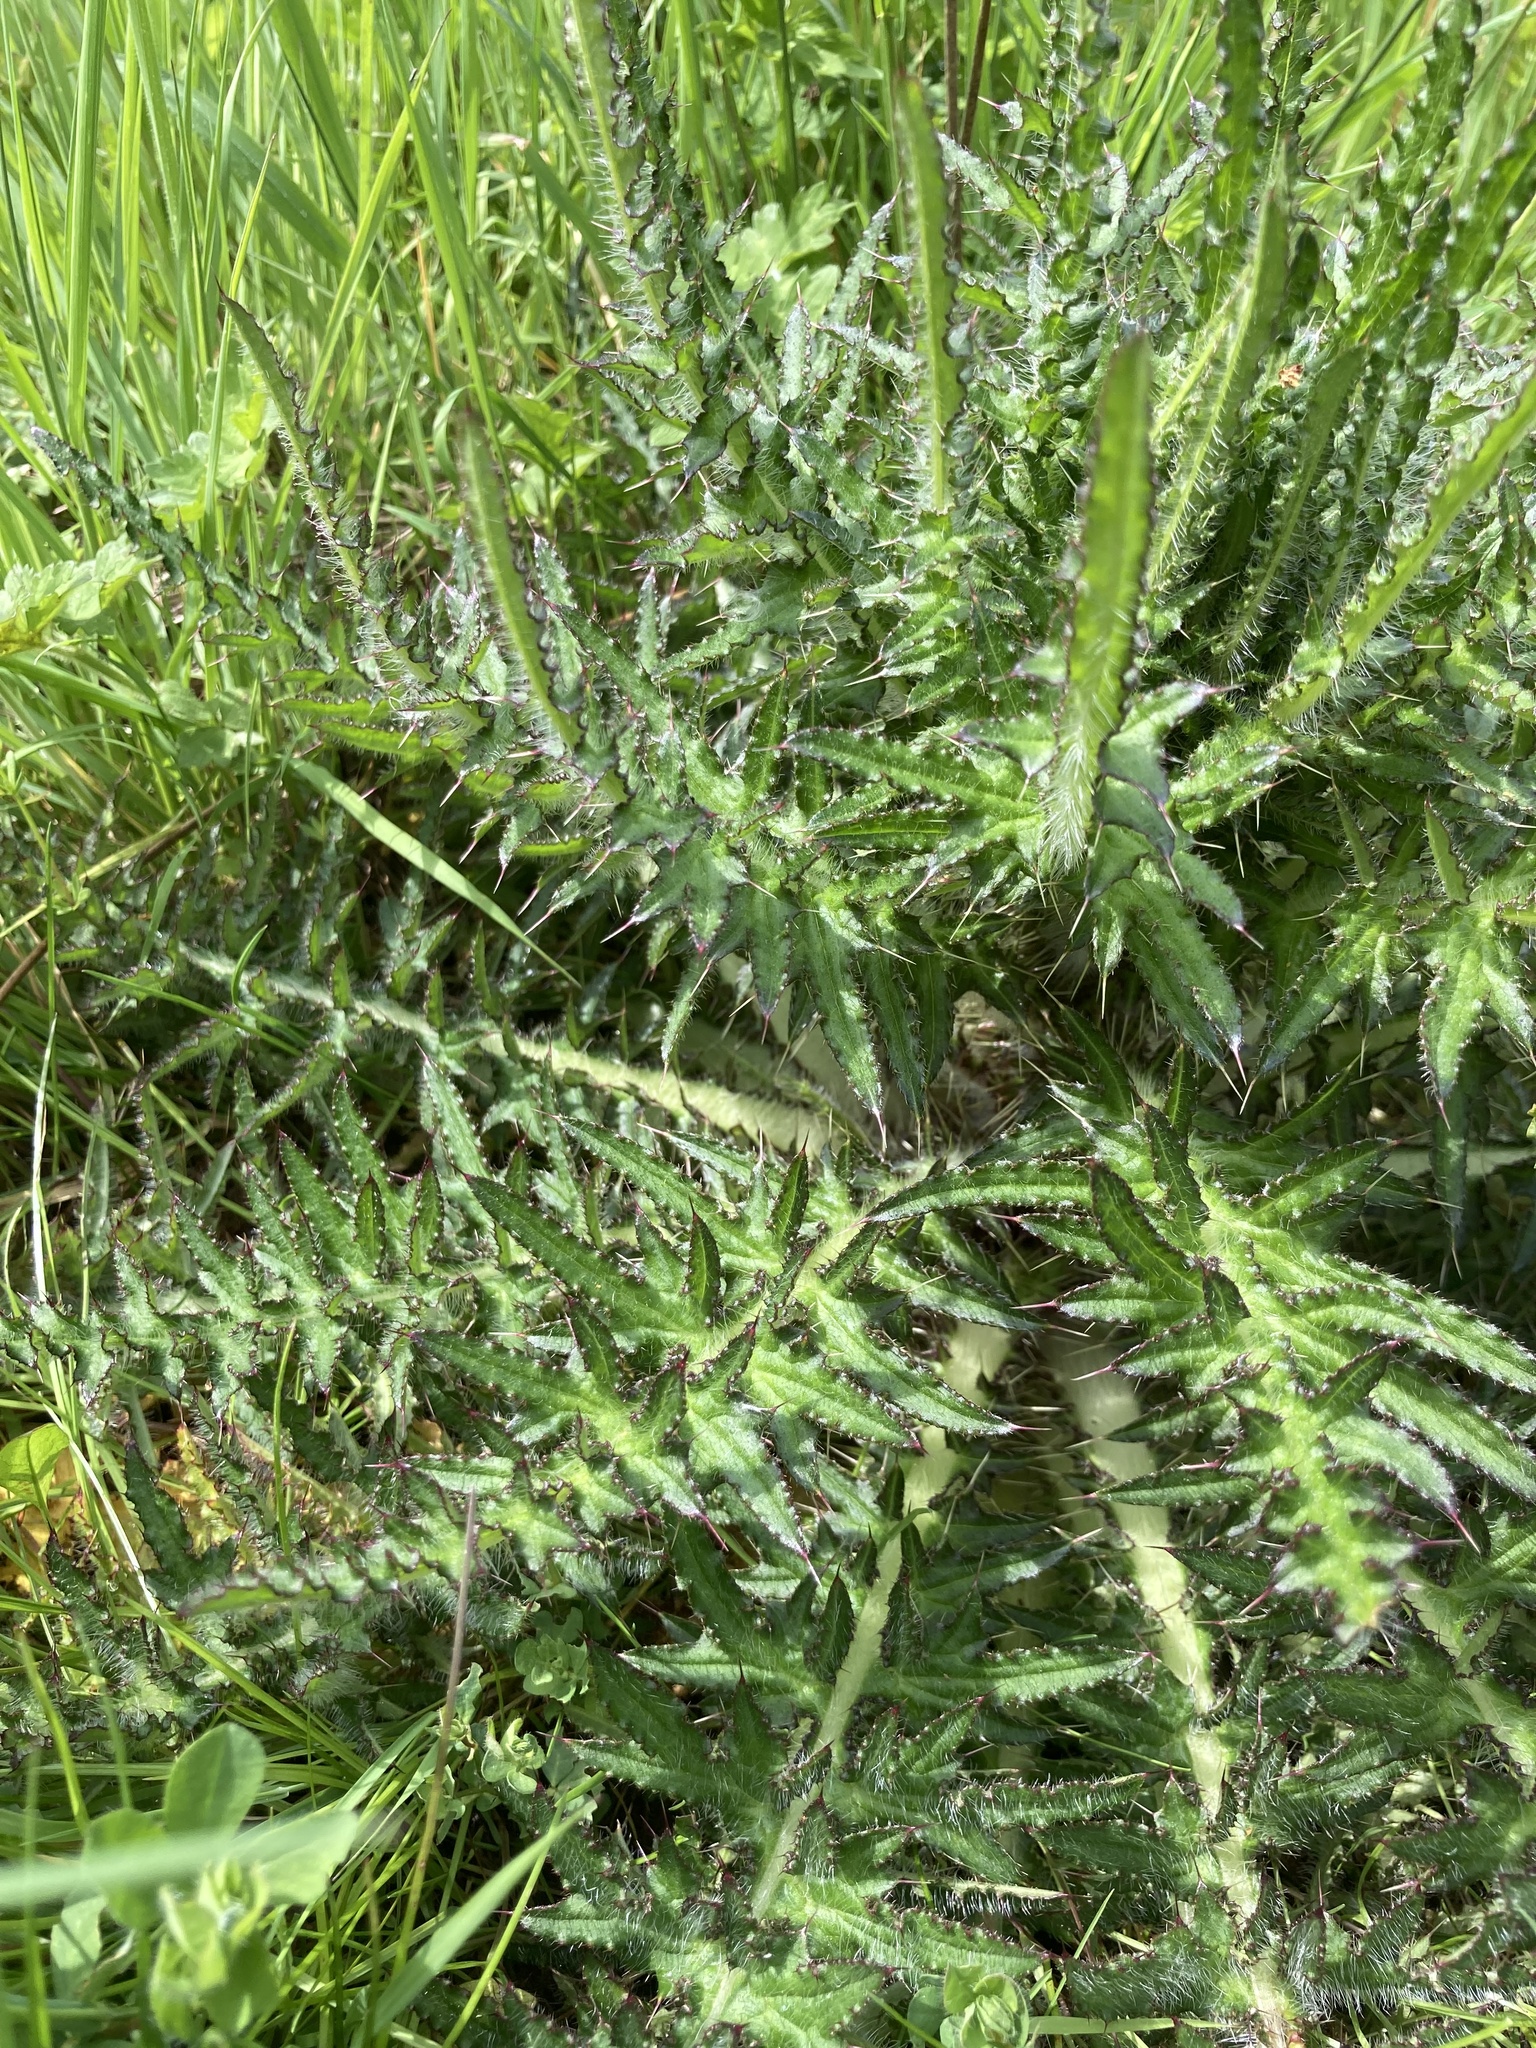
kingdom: Plantae
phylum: Tracheophyta
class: Magnoliopsida
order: Asterales
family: Asteraceae
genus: Cirsium
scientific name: Cirsium palustre
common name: Marsh thistle
